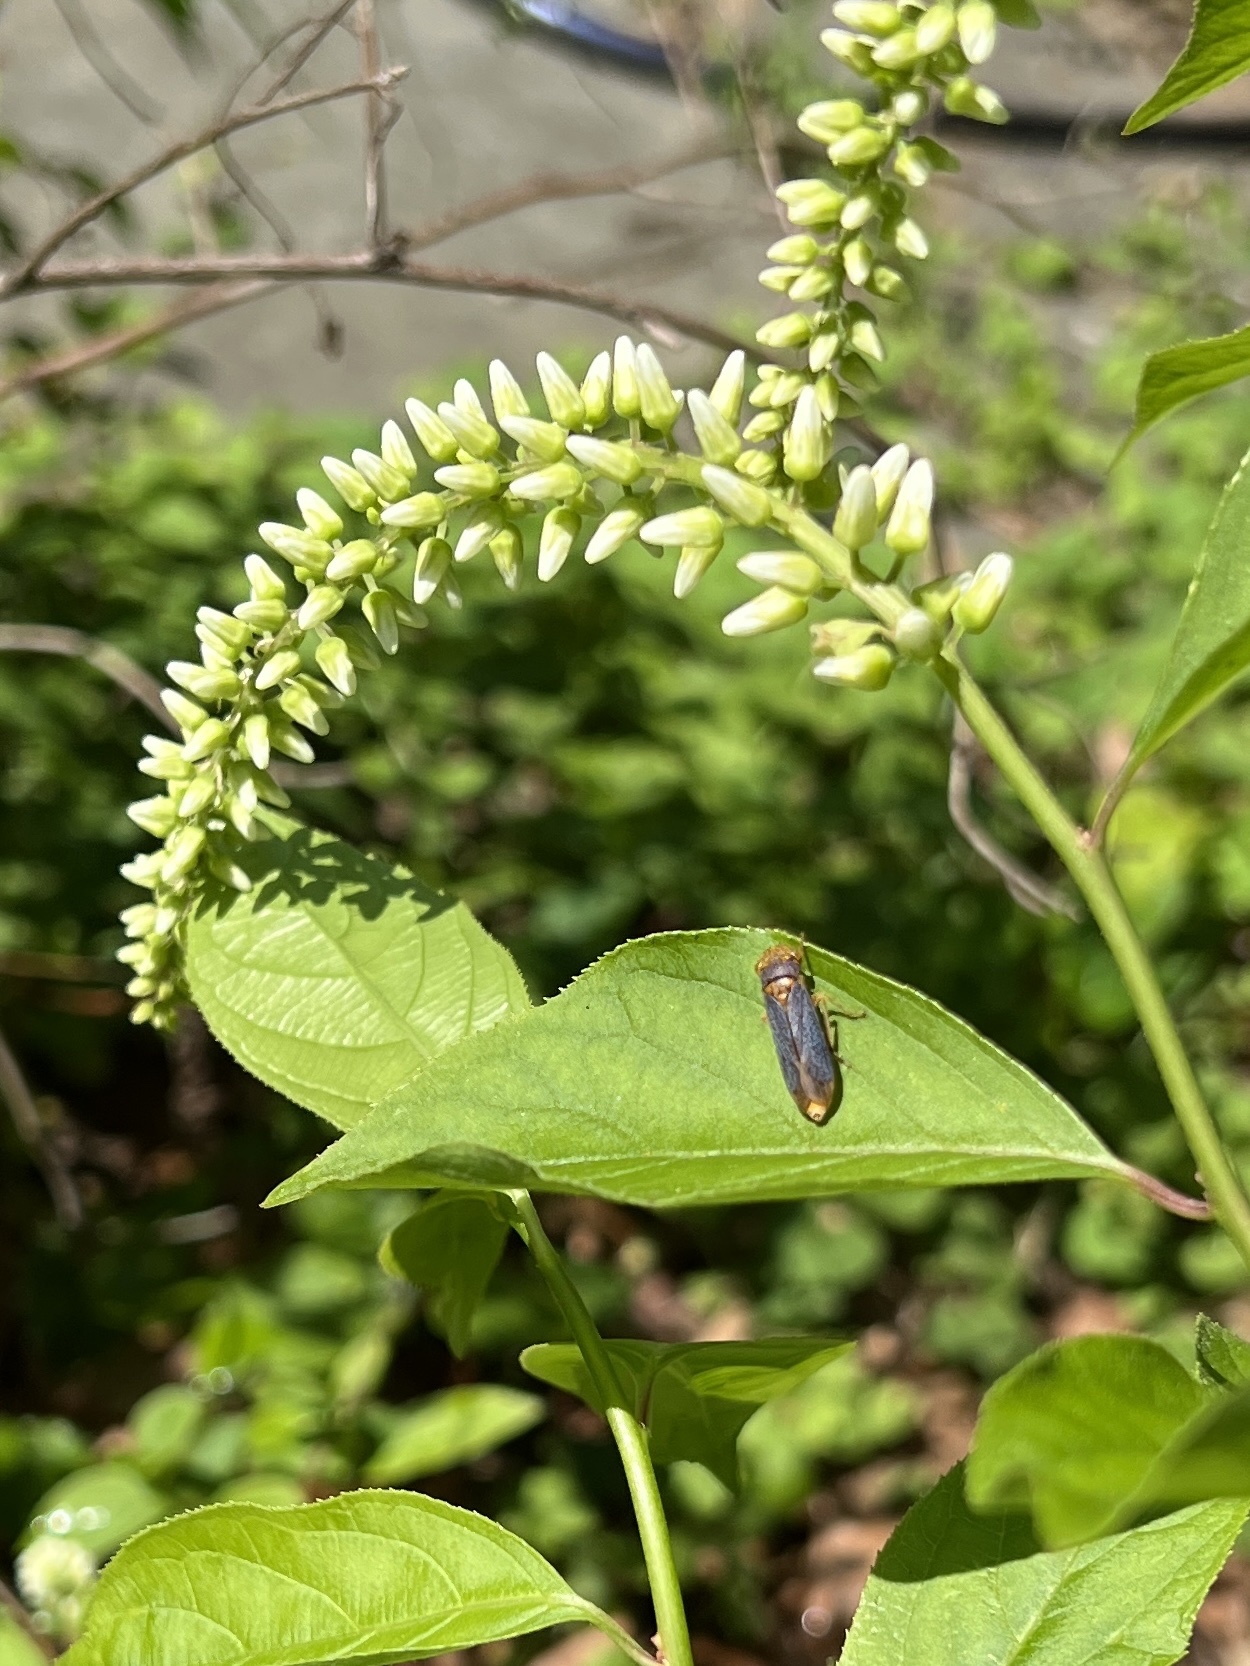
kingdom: Animalia
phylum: Arthropoda
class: Insecta
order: Hemiptera
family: Cicadellidae
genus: Oncometopia
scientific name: Oncometopia orbona
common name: Broad-headed sharpshooter
